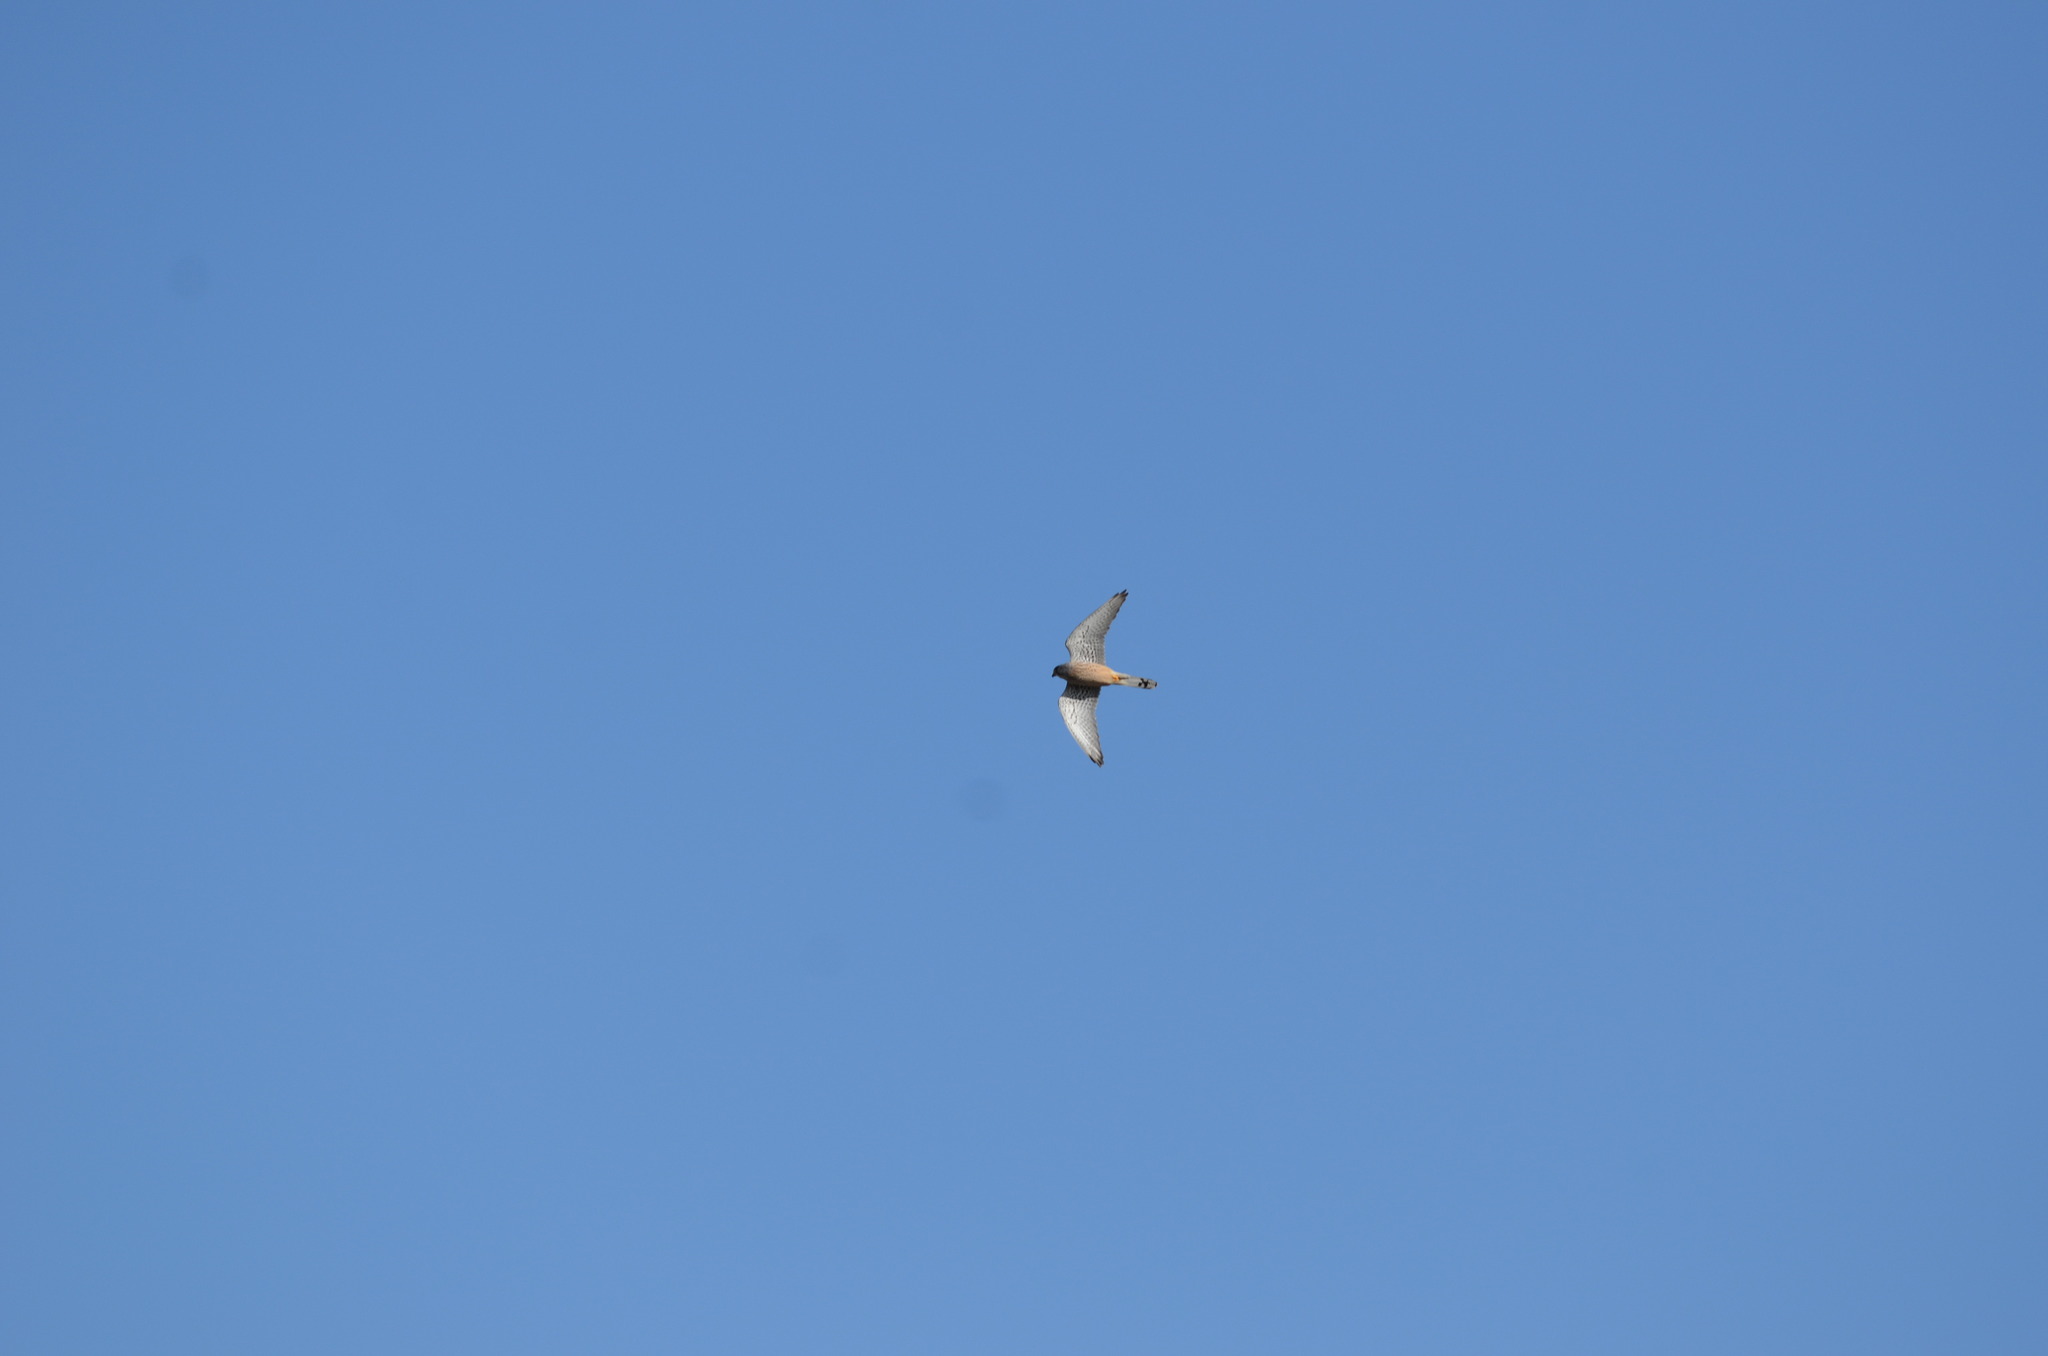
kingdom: Animalia
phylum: Chordata
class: Aves
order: Falconiformes
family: Falconidae
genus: Falco
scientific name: Falco tinnunculus
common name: Common kestrel
